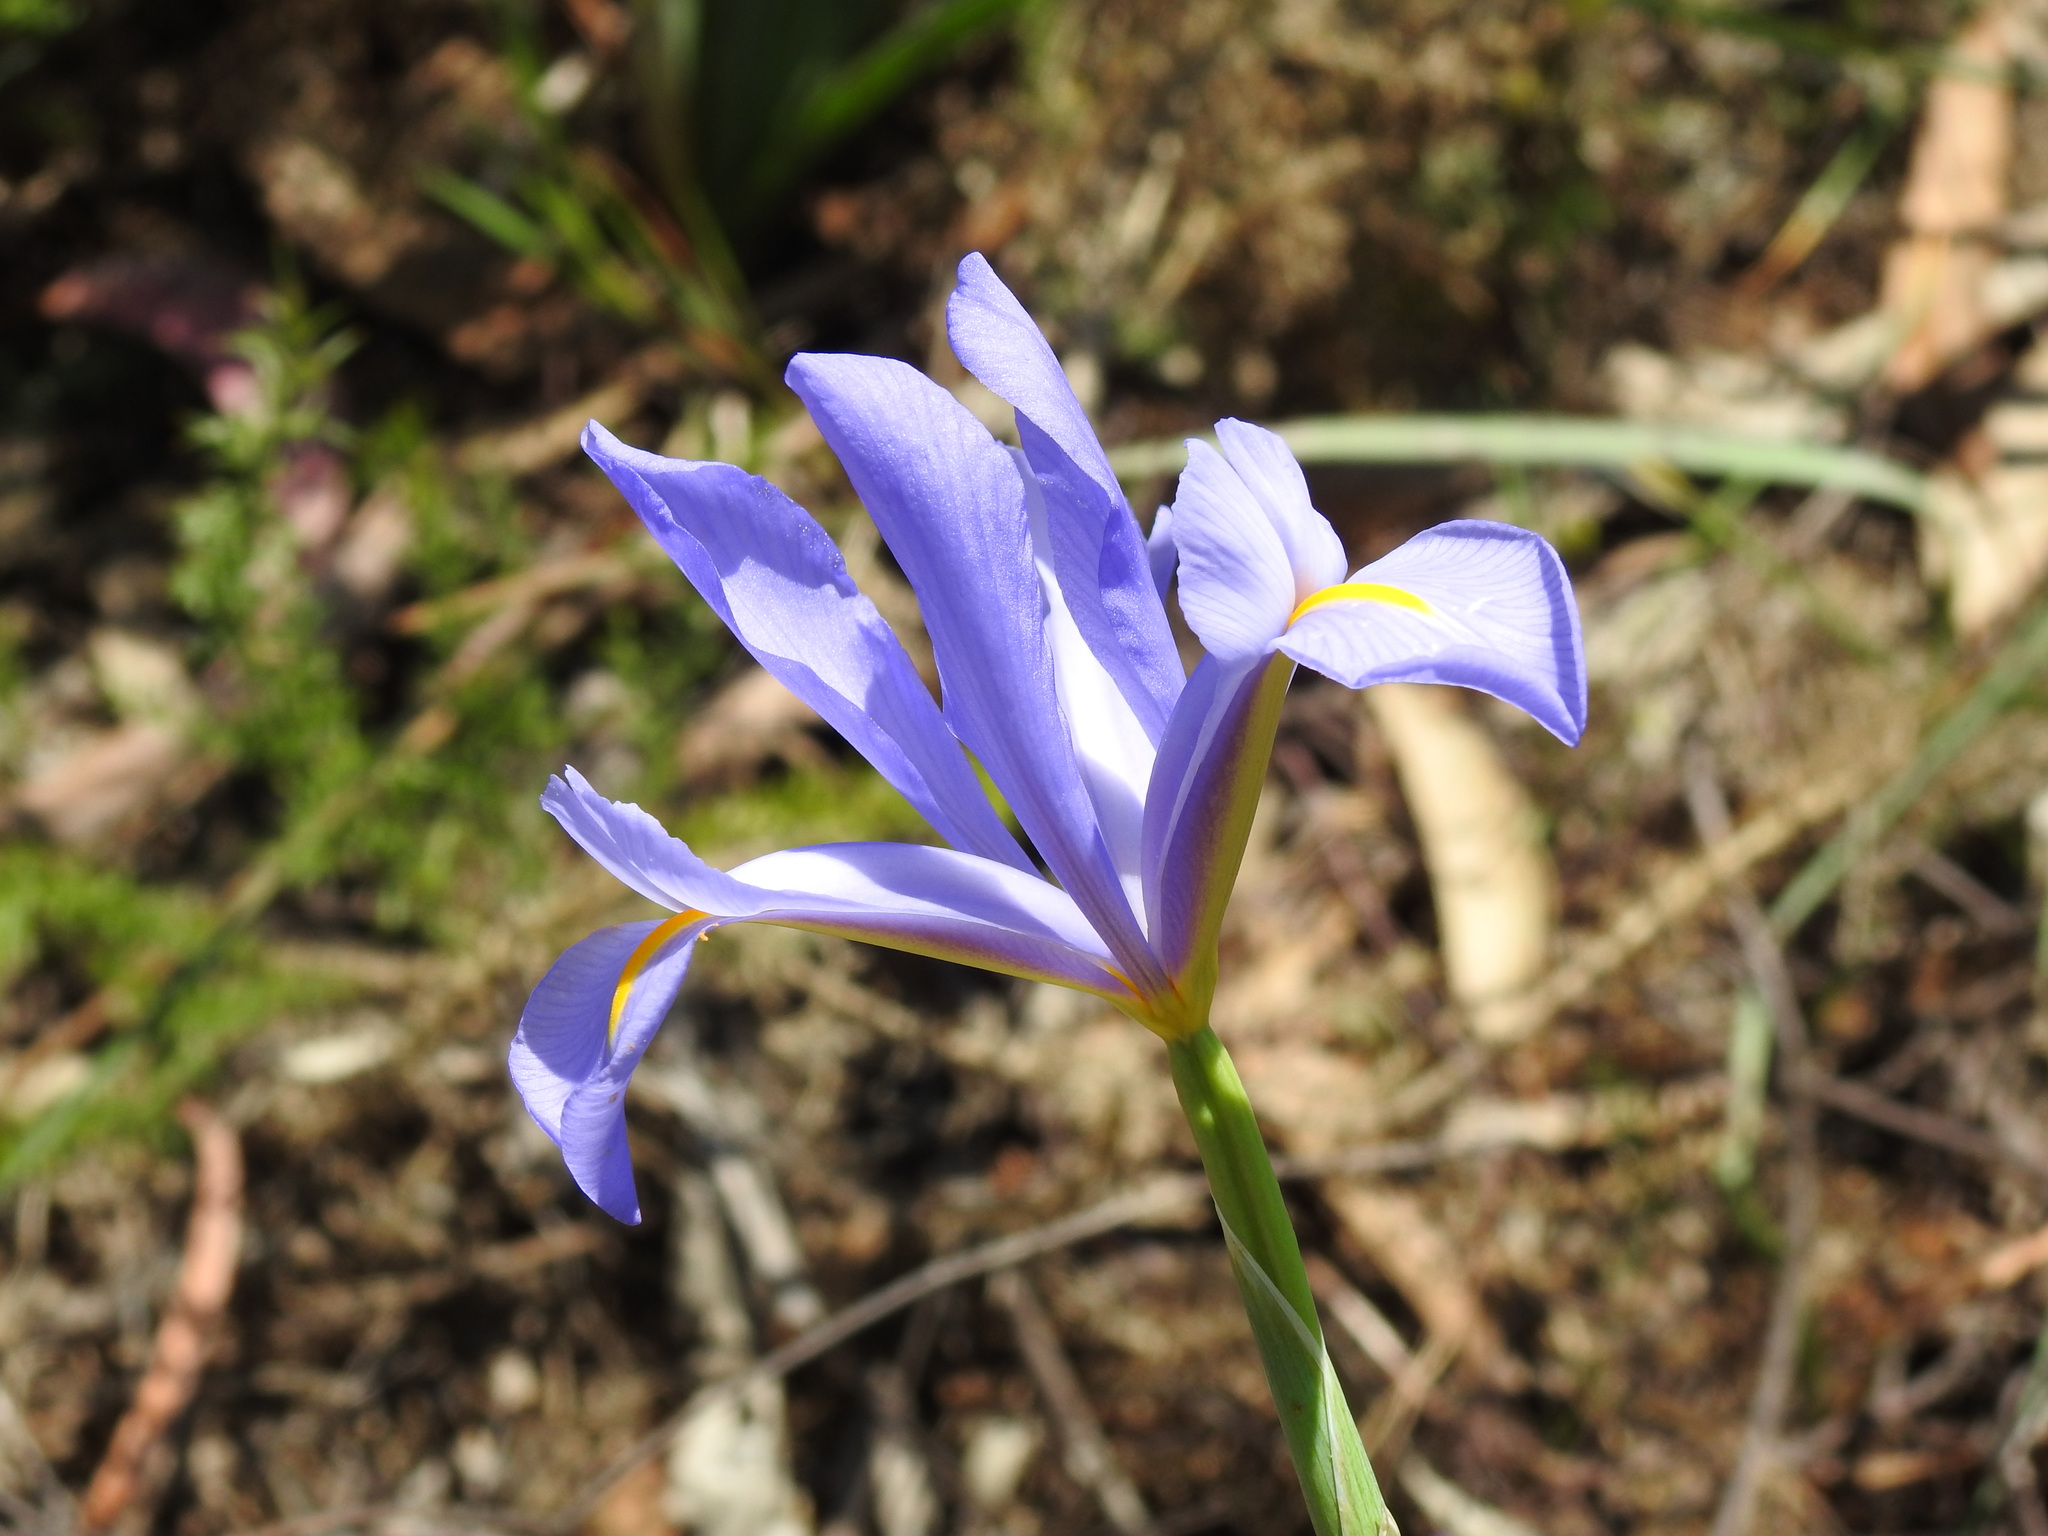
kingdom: Plantae
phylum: Tracheophyta
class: Liliopsida
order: Asparagales
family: Iridaceae
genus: Iris
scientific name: Iris xiphium
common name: Spanish iris
